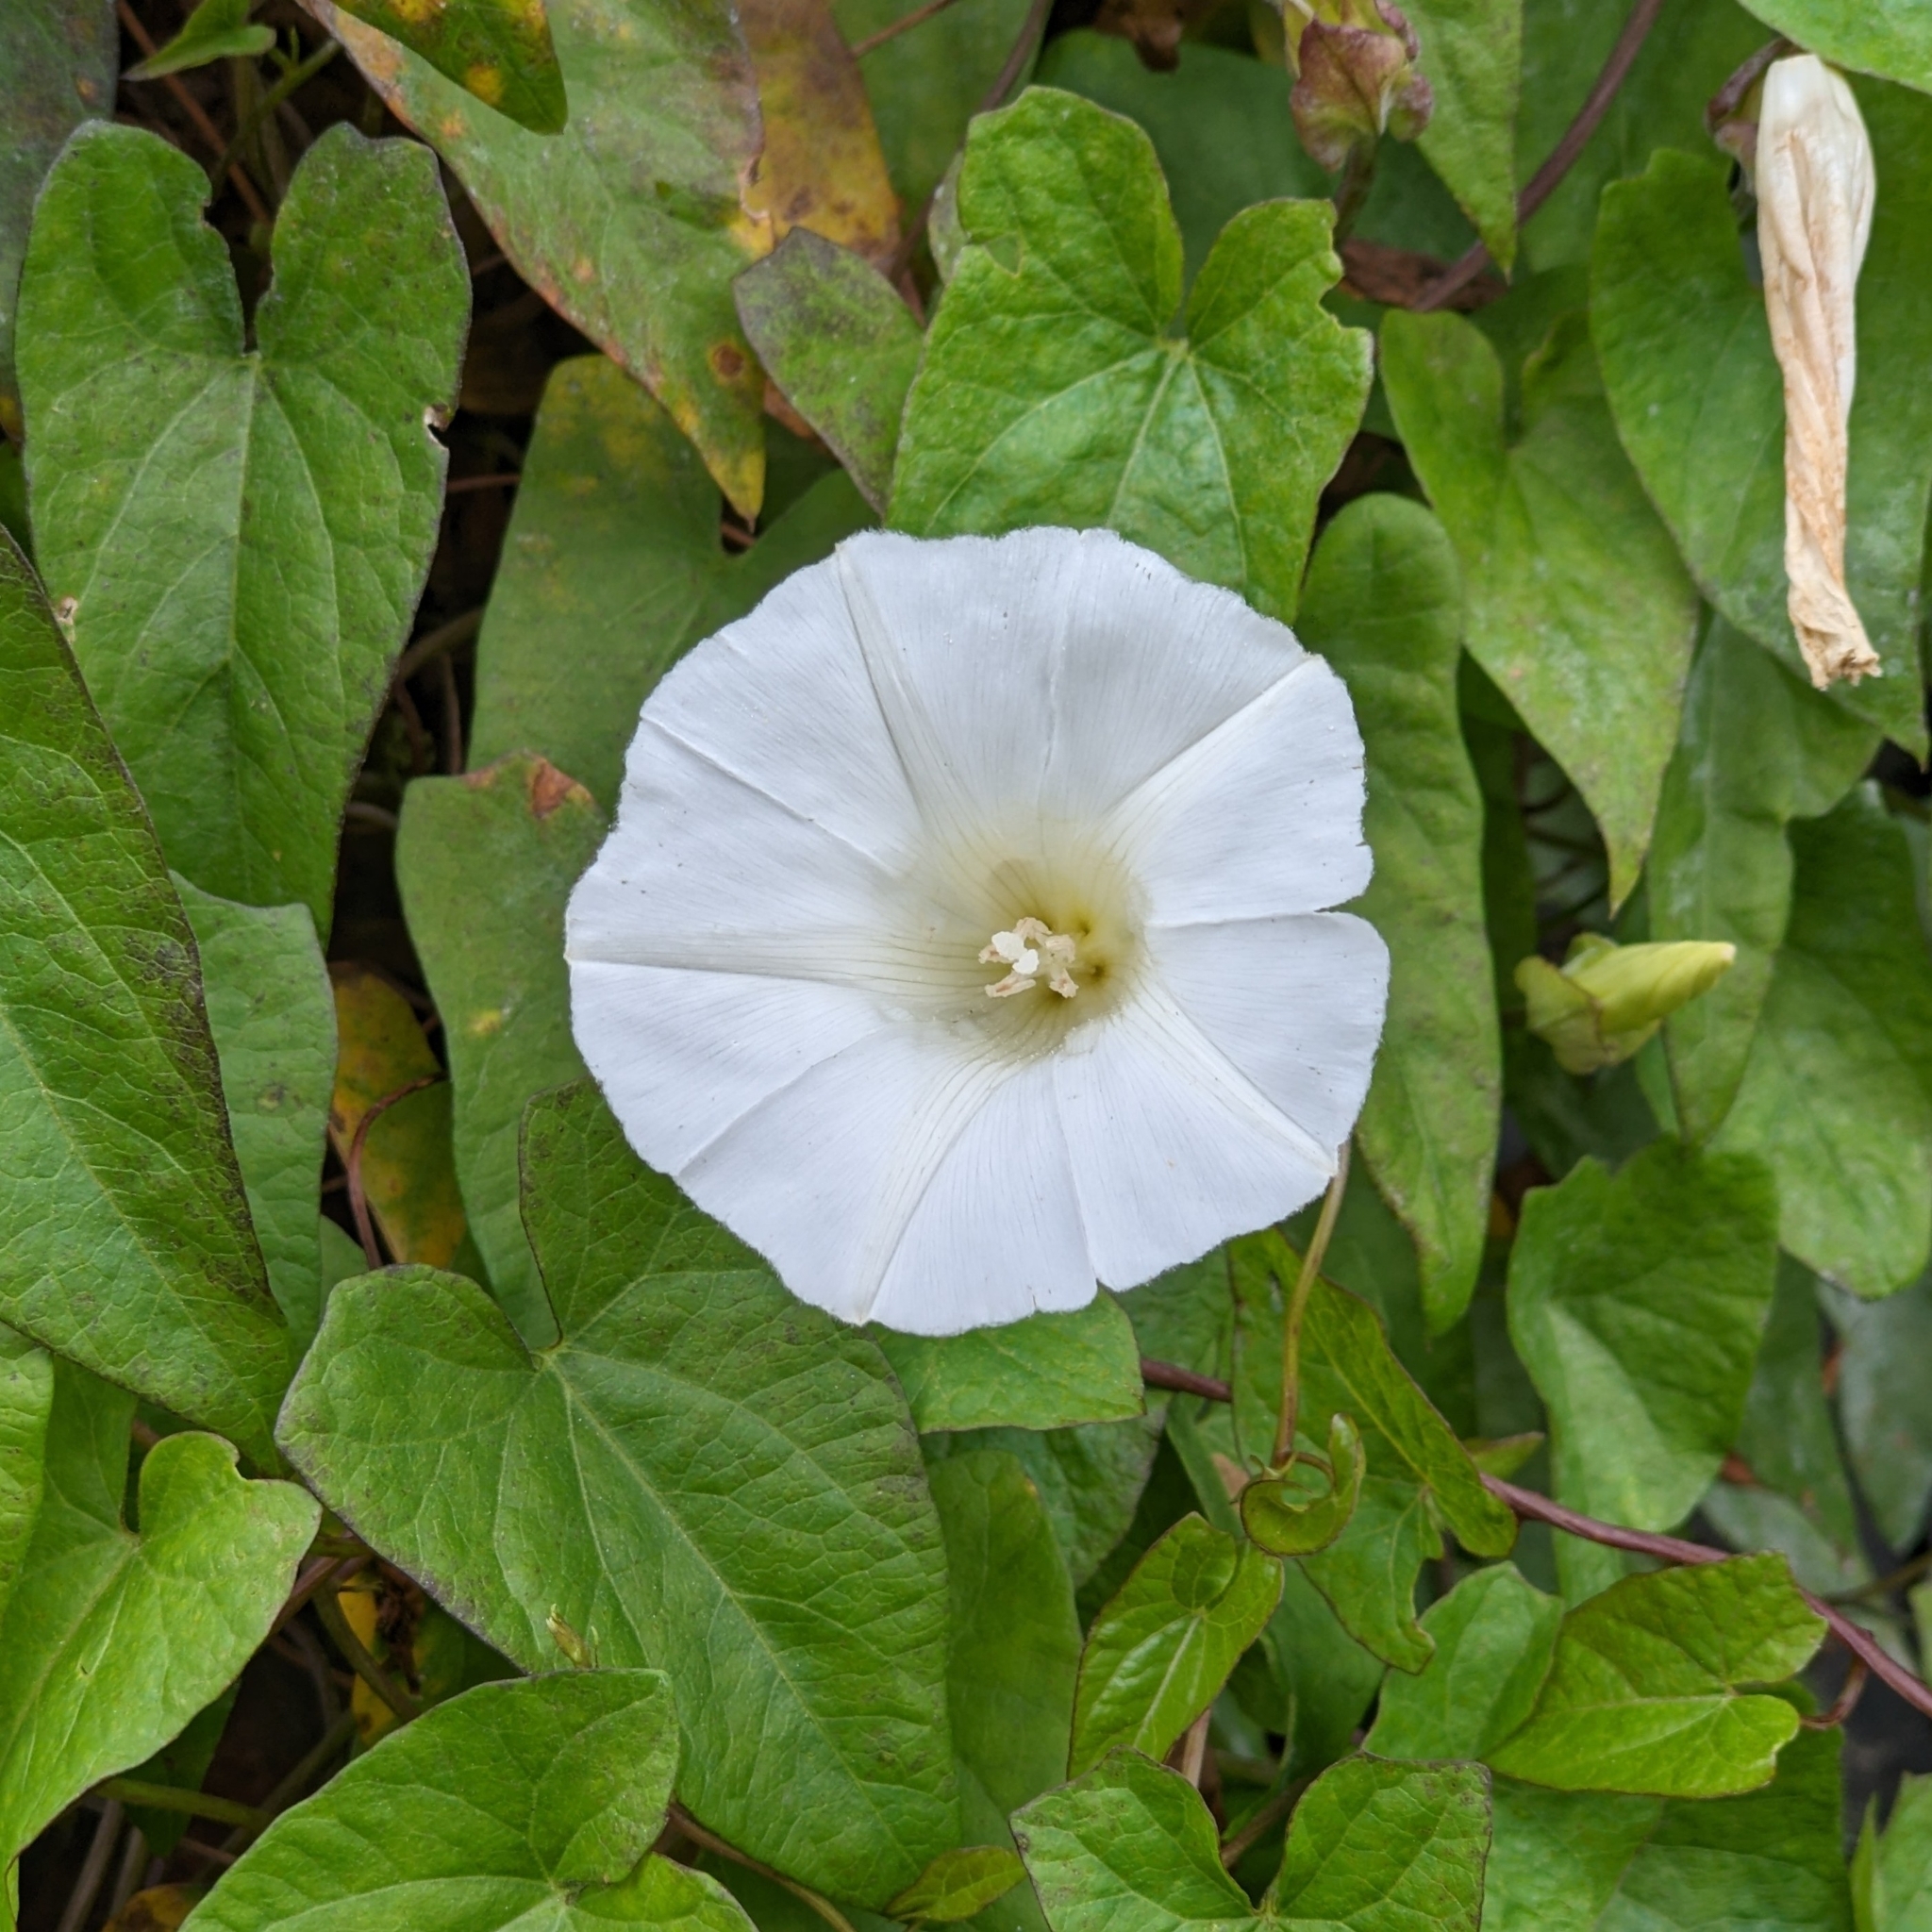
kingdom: Plantae
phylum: Tracheophyta
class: Magnoliopsida
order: Solanales
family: Convolvulaceae
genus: Calystegia
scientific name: Calystegia sepium
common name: Hedge bindweed
